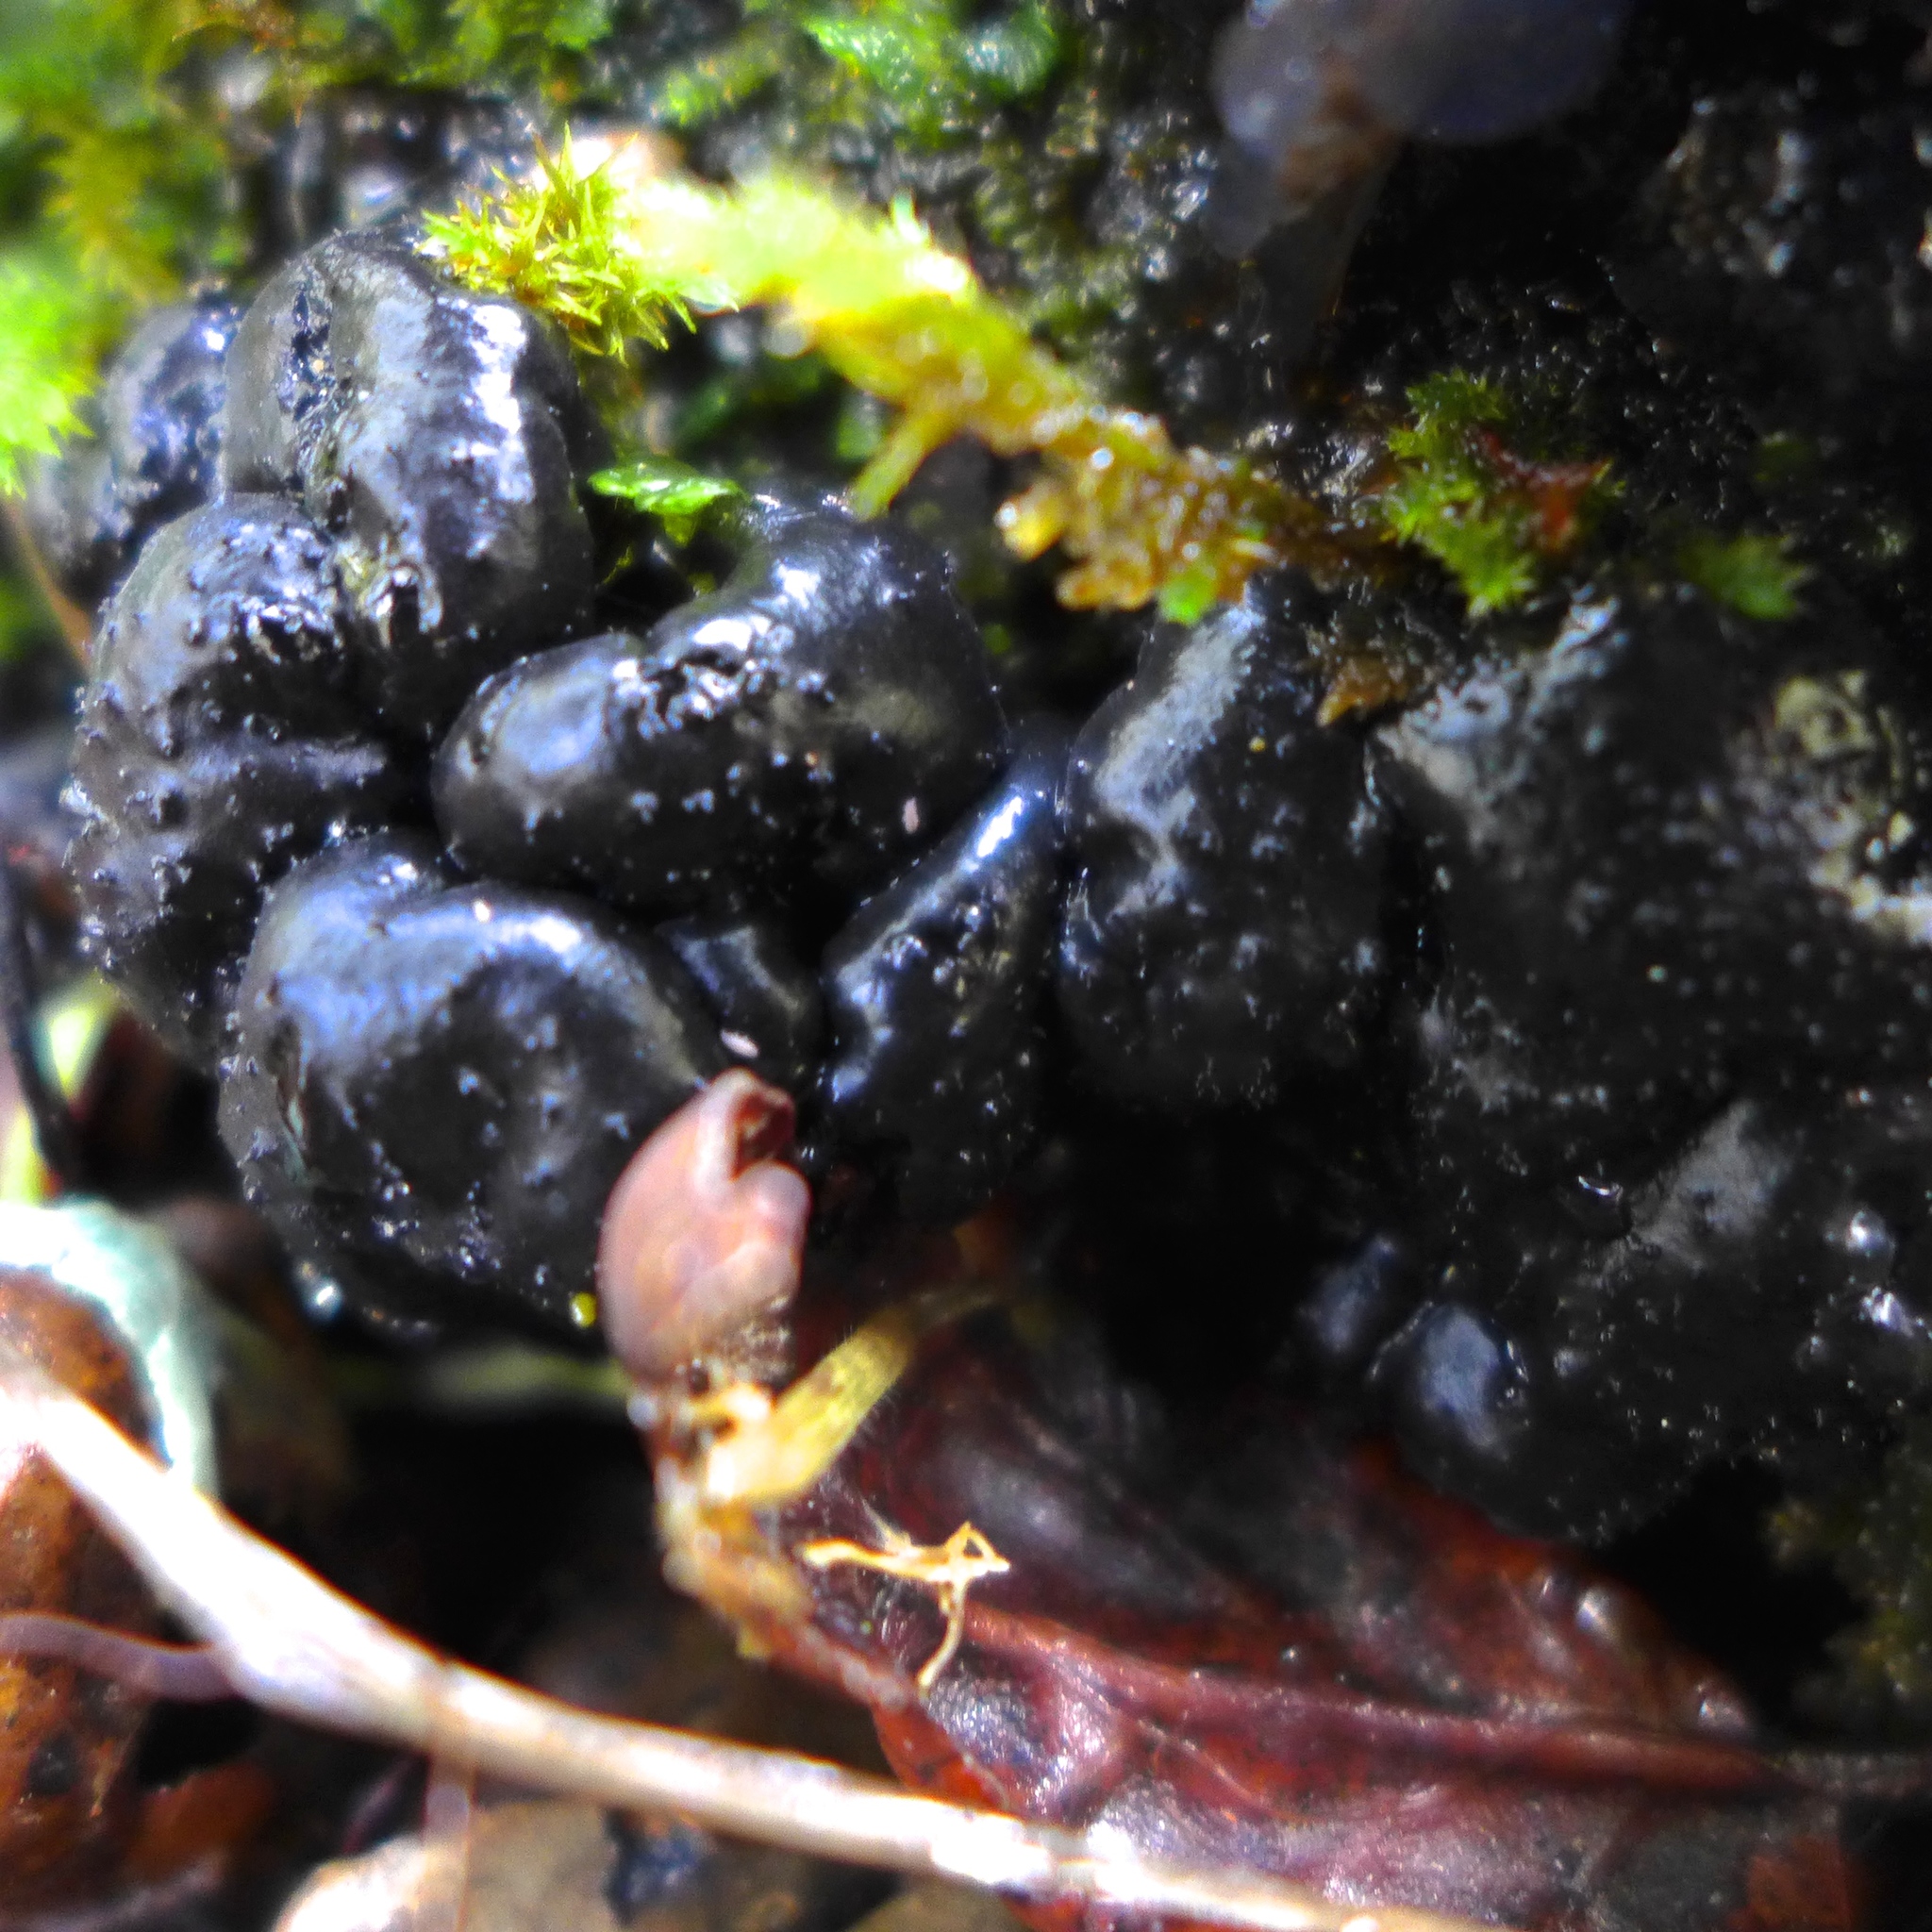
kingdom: Fungi
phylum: Basidiomycota
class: Agaricomycetes
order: Auriculariales
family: Auriculariaceae
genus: Exidia
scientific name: Exidia glandulosa
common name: Witches' butter
